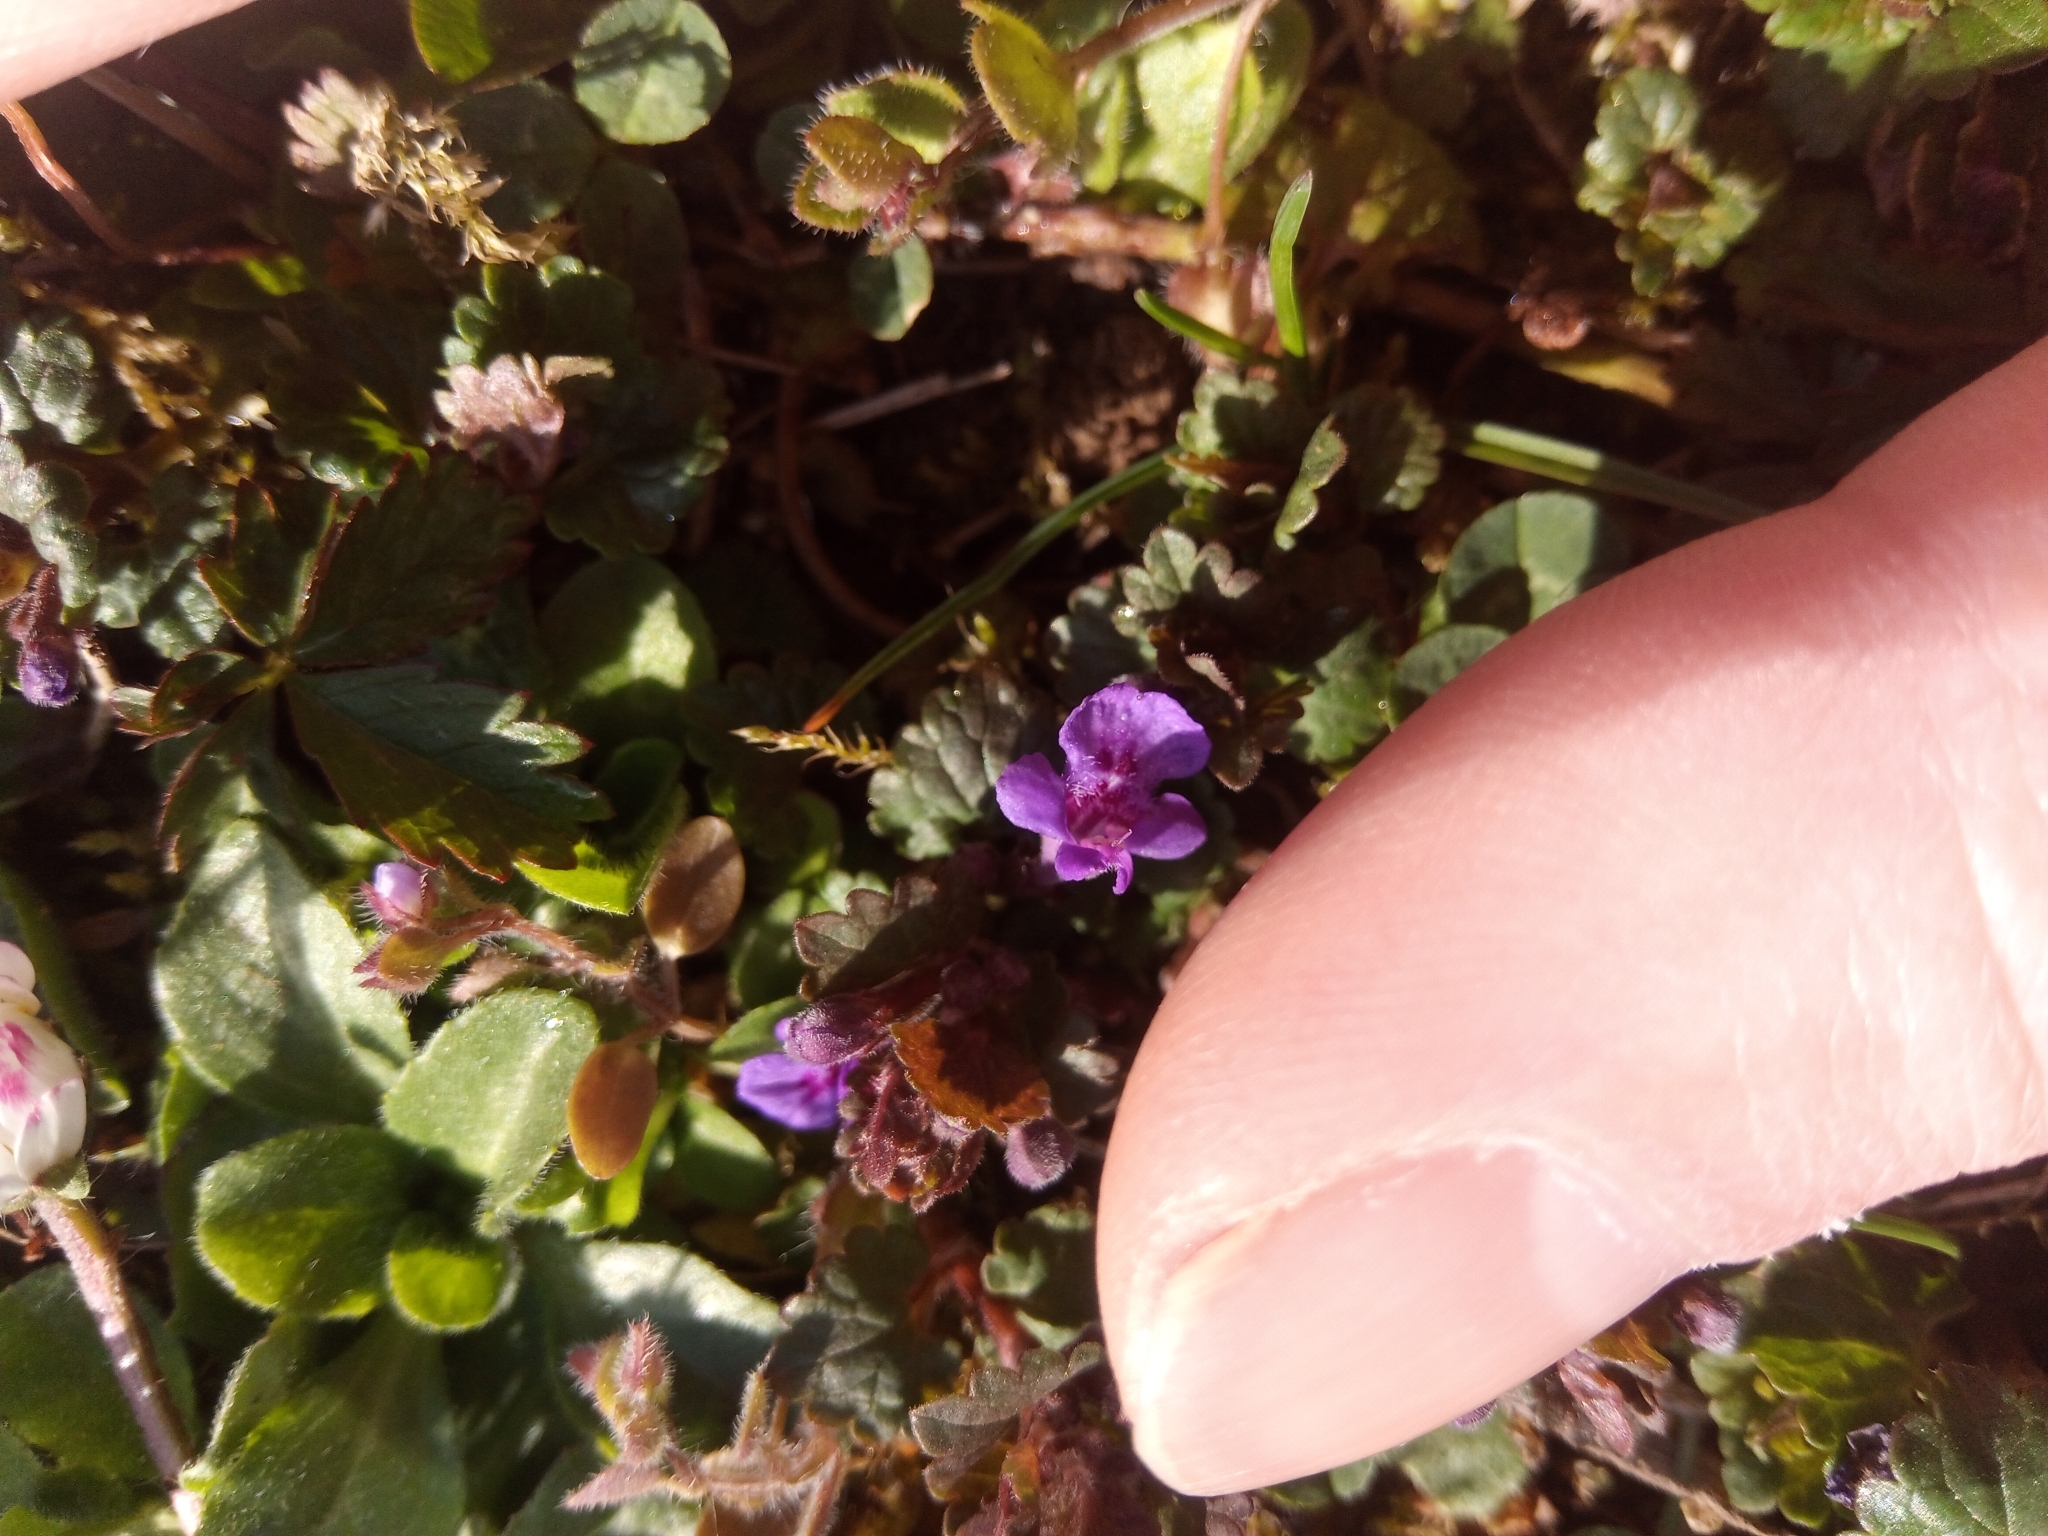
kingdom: Plantae
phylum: Tracheophyta
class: Magnoliopsida
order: Lamiales
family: Lamiaceae
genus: Glechoma
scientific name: Glechoma hederacea
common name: Ground ivy
